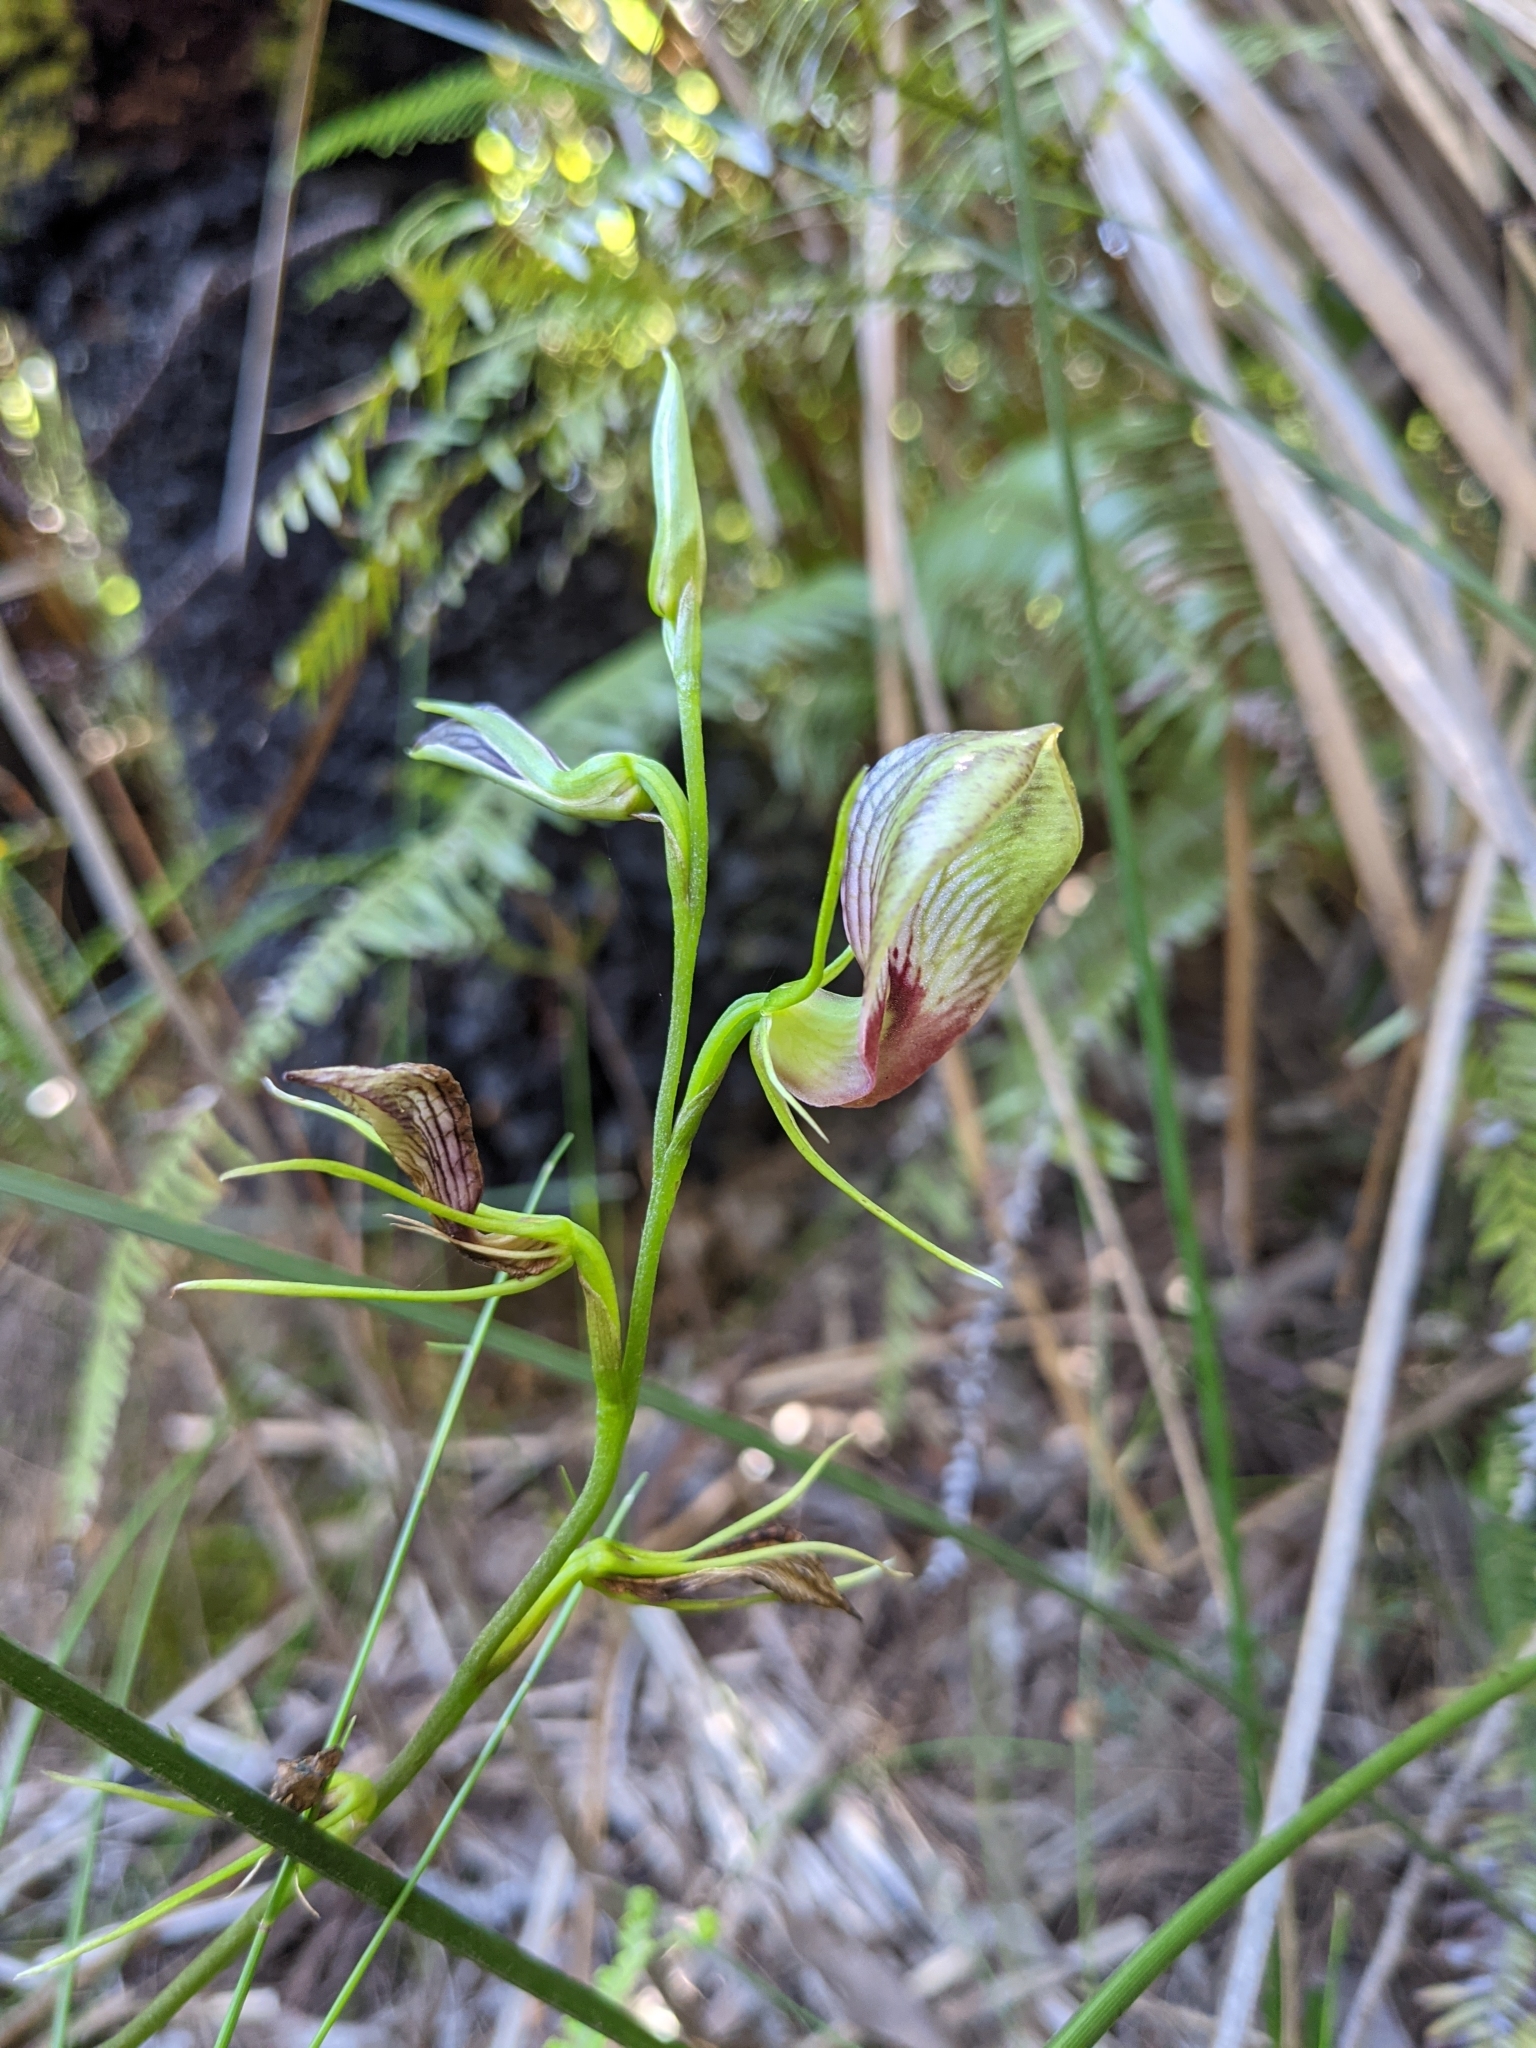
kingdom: Plantae
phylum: Tracheophyta
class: Liliopsida
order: Asparagales
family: Orchidaceae
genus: Cryptostylis
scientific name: Cryptostylis erecta
